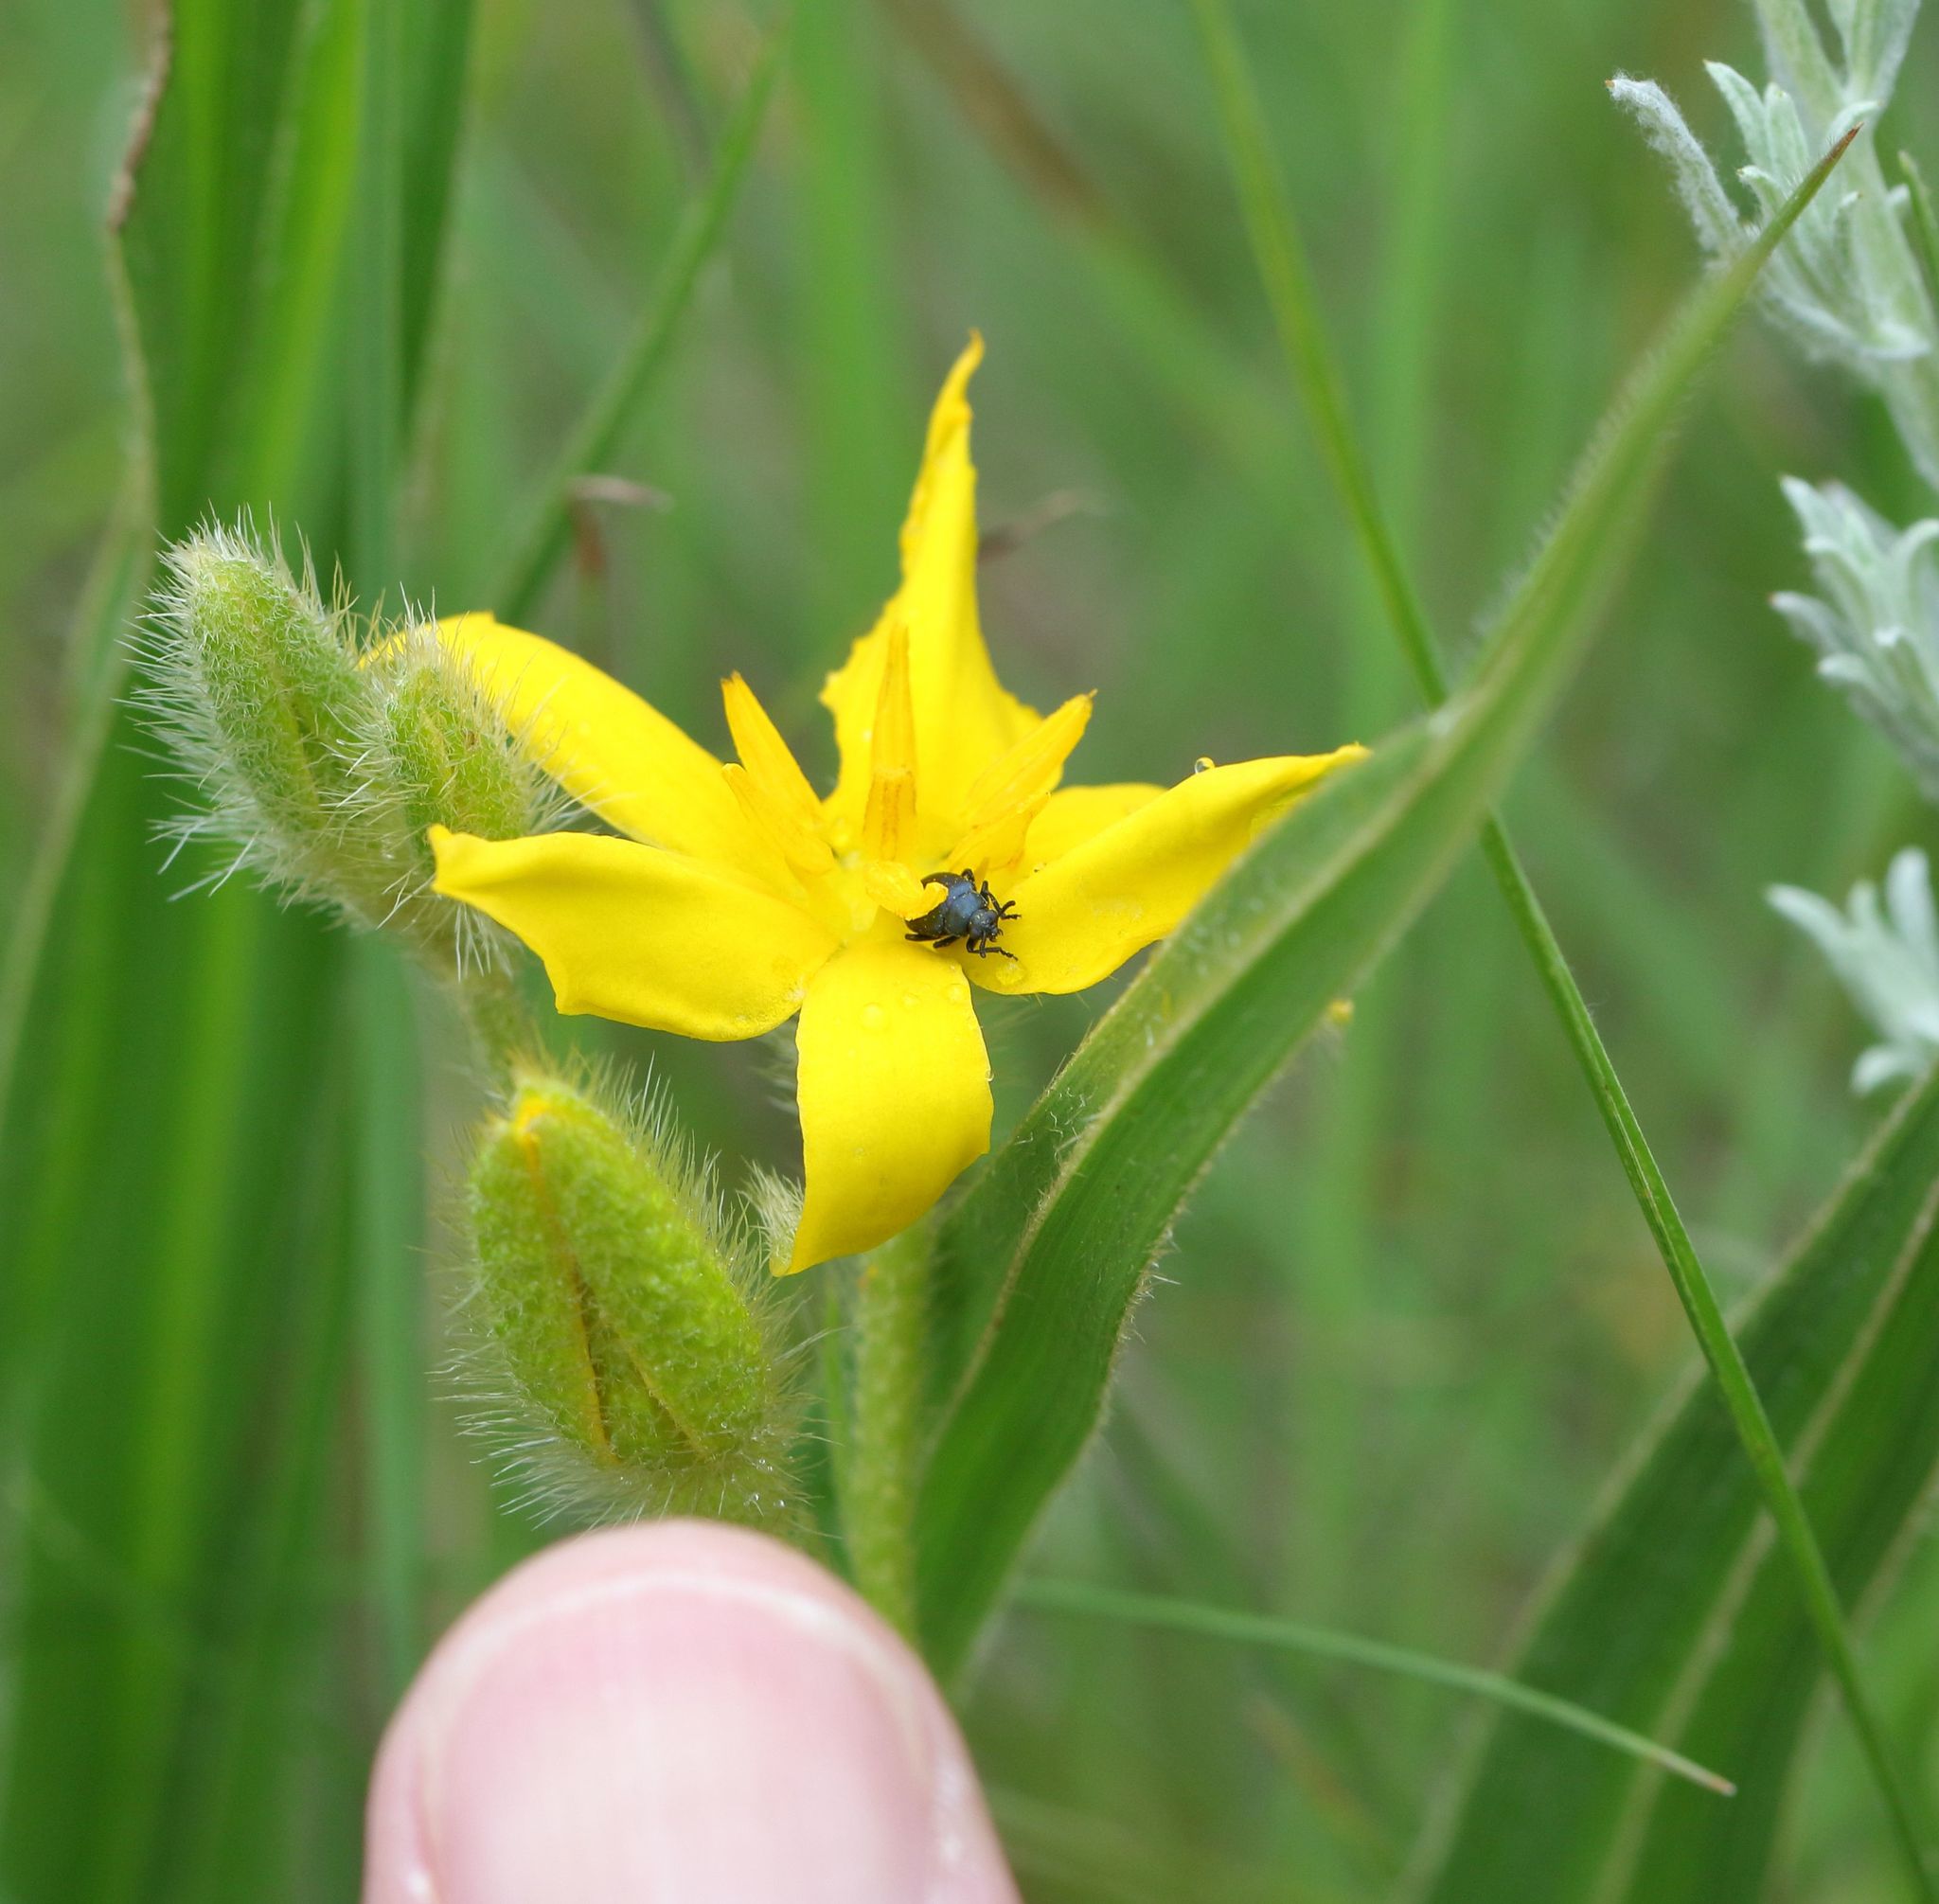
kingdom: Animalia
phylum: Arthropoda
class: Insecta
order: Coleoptera
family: Chrysomelidae
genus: Gastrida
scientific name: Gastrida
